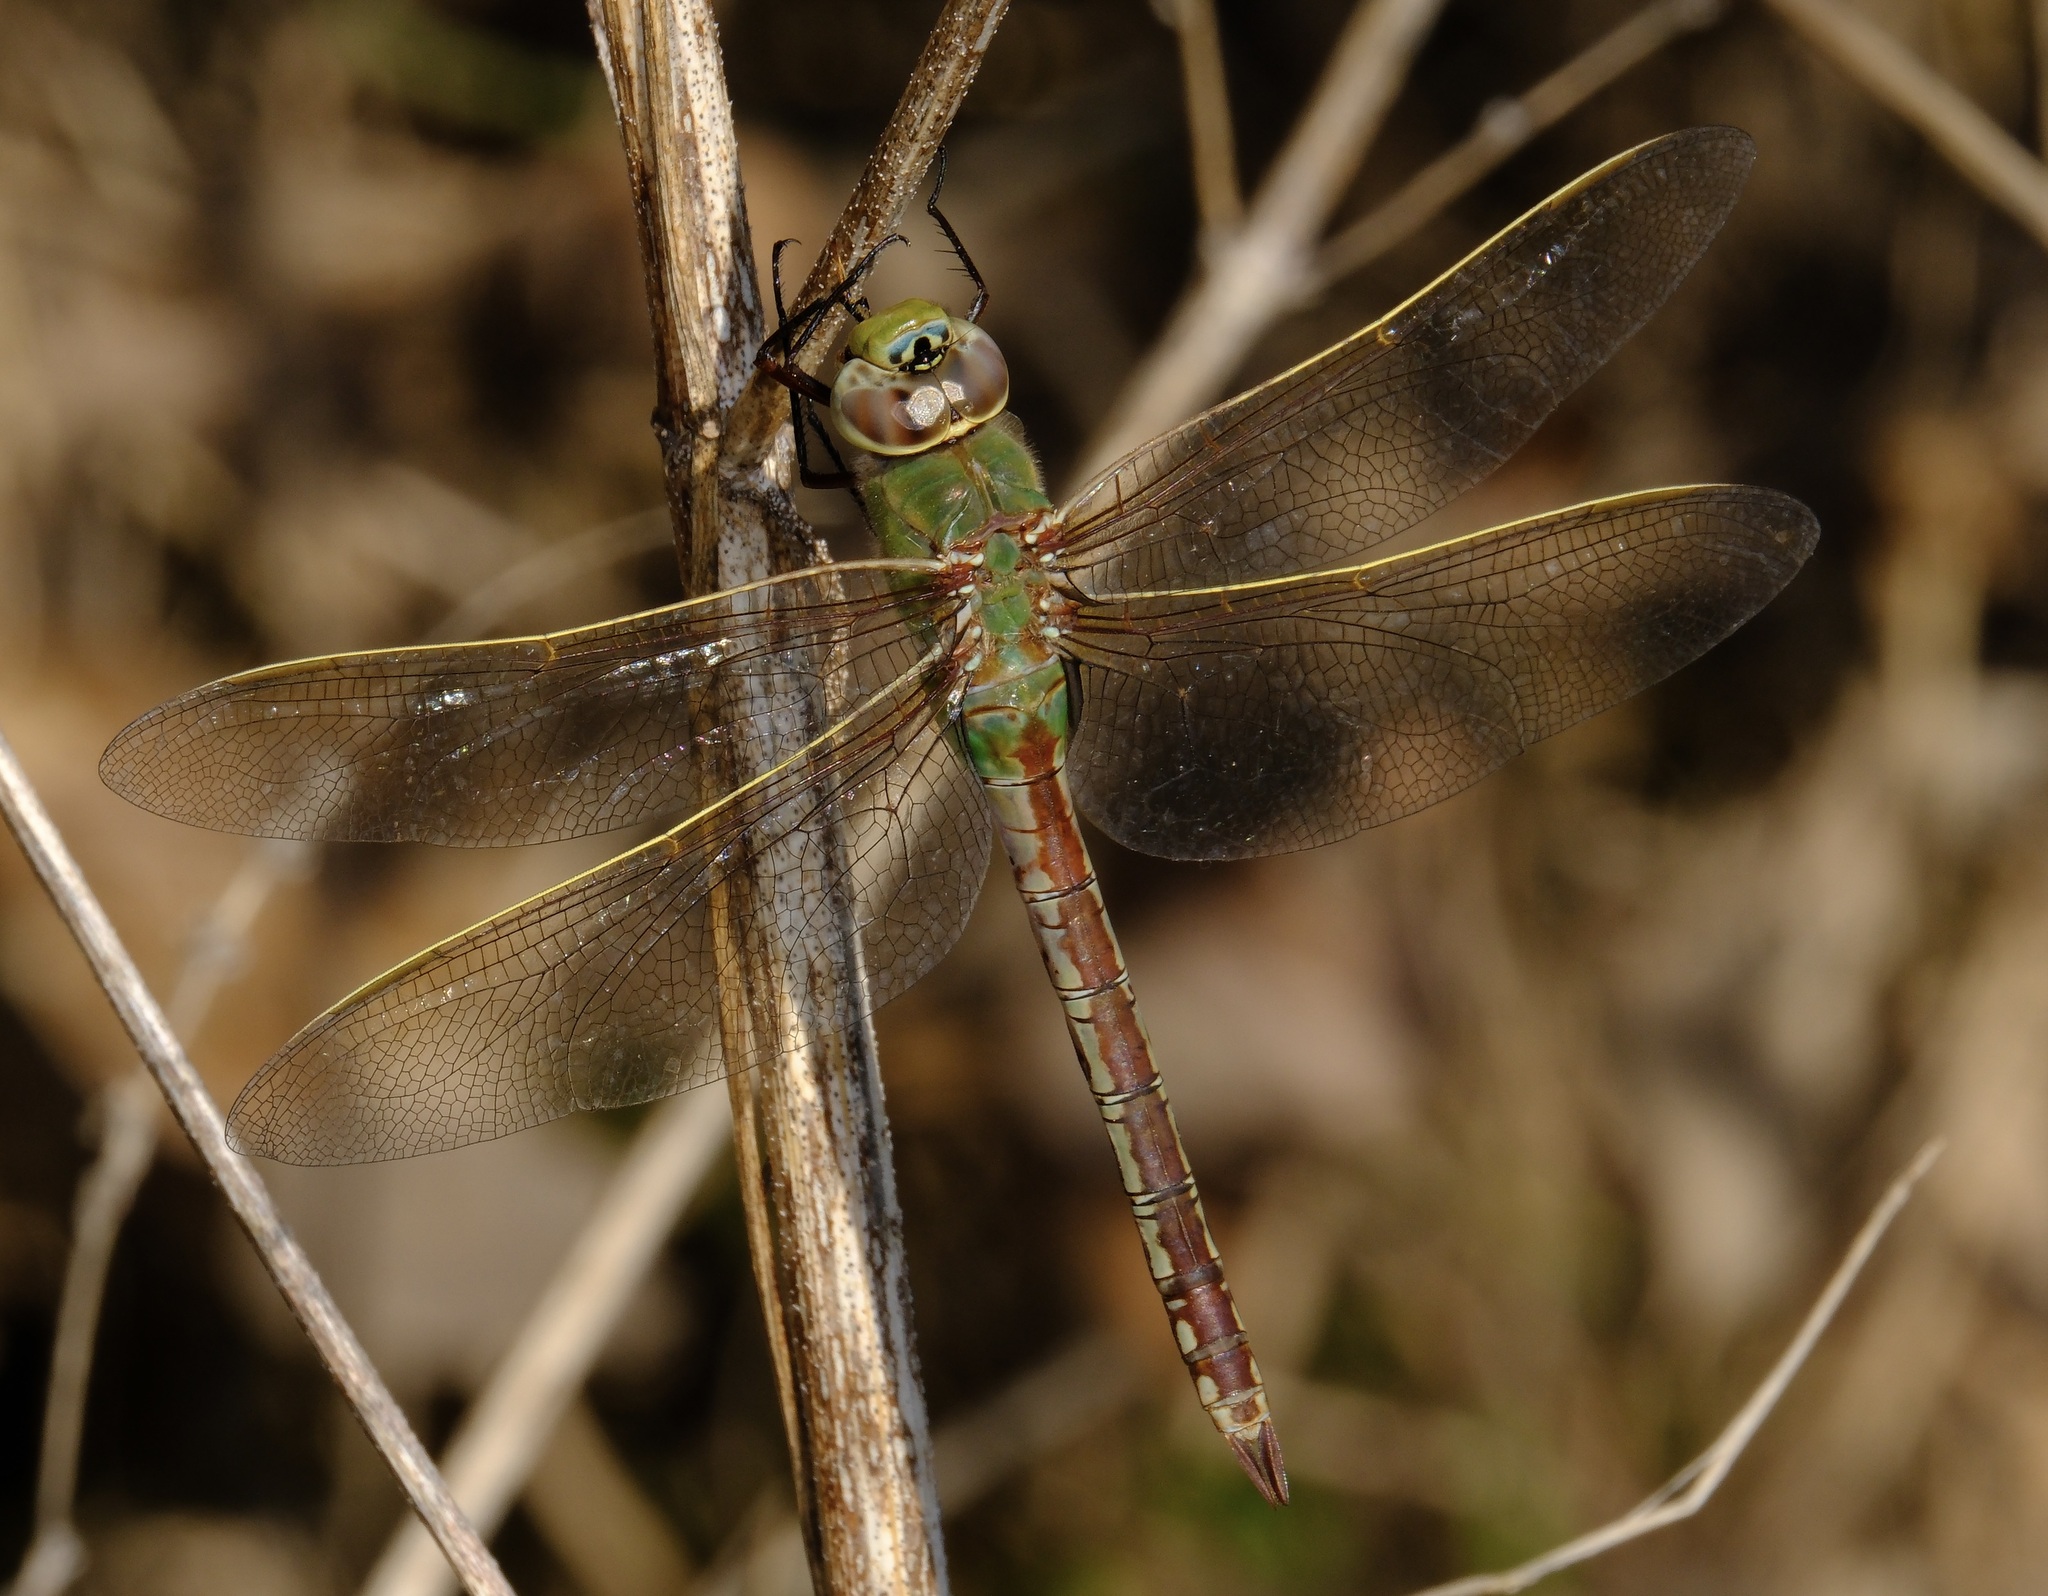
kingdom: Animalia
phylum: Arthropoda
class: Insecta
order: Odonata
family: Aeshnidae
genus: Anax
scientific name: Anax junius
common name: Common green darner
